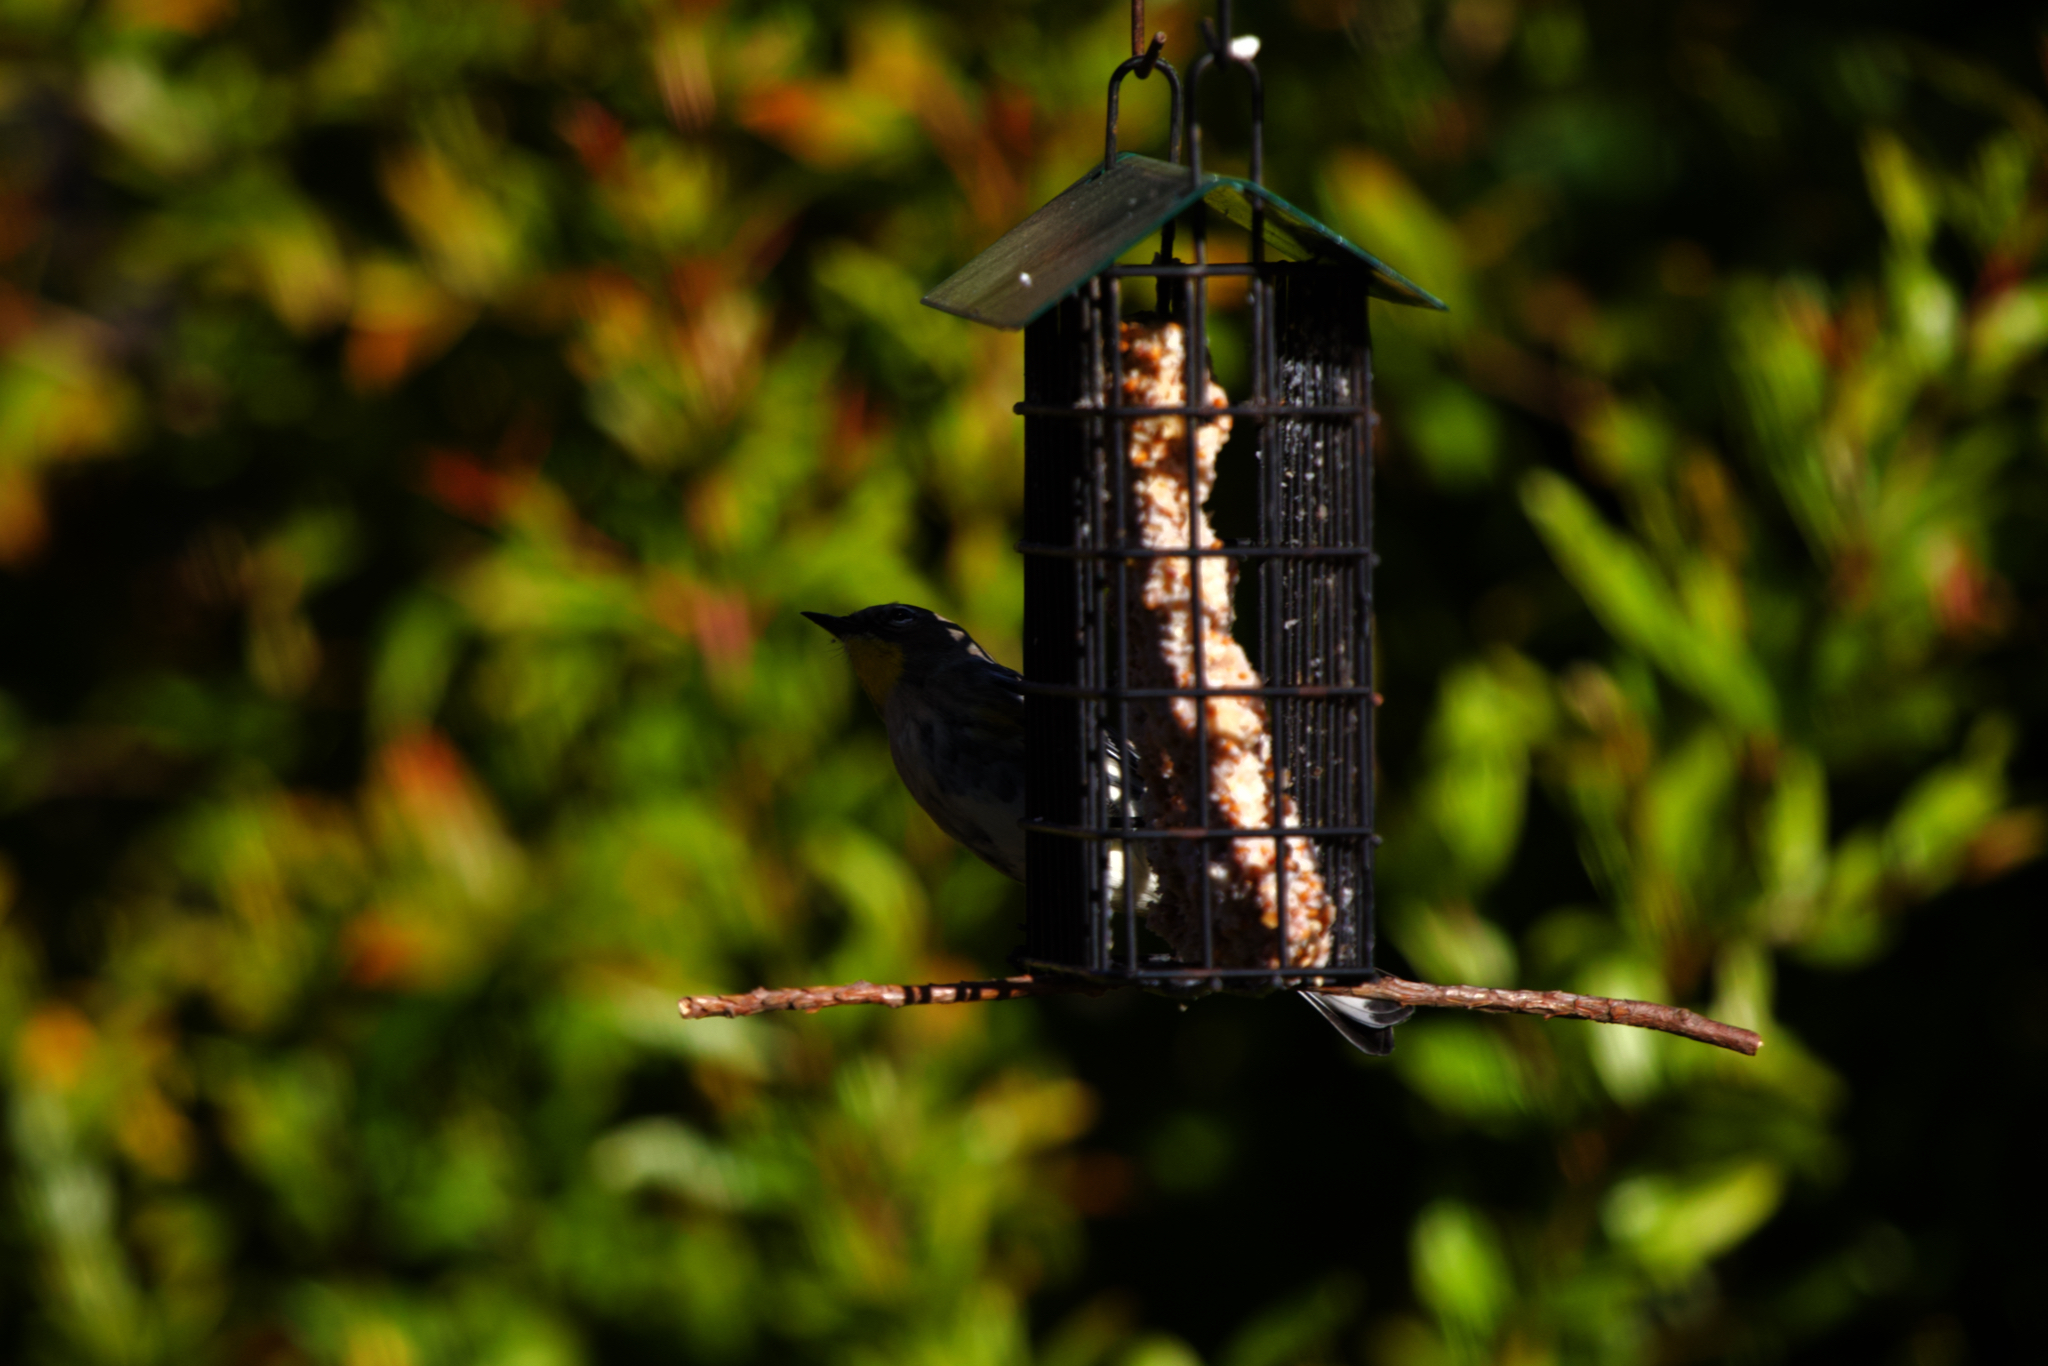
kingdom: Animalia
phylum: Chordata
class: Aves
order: Passeriformes
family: Parulidae
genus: Setophaga
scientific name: Setophaga coronata
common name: Myrtle warbler
